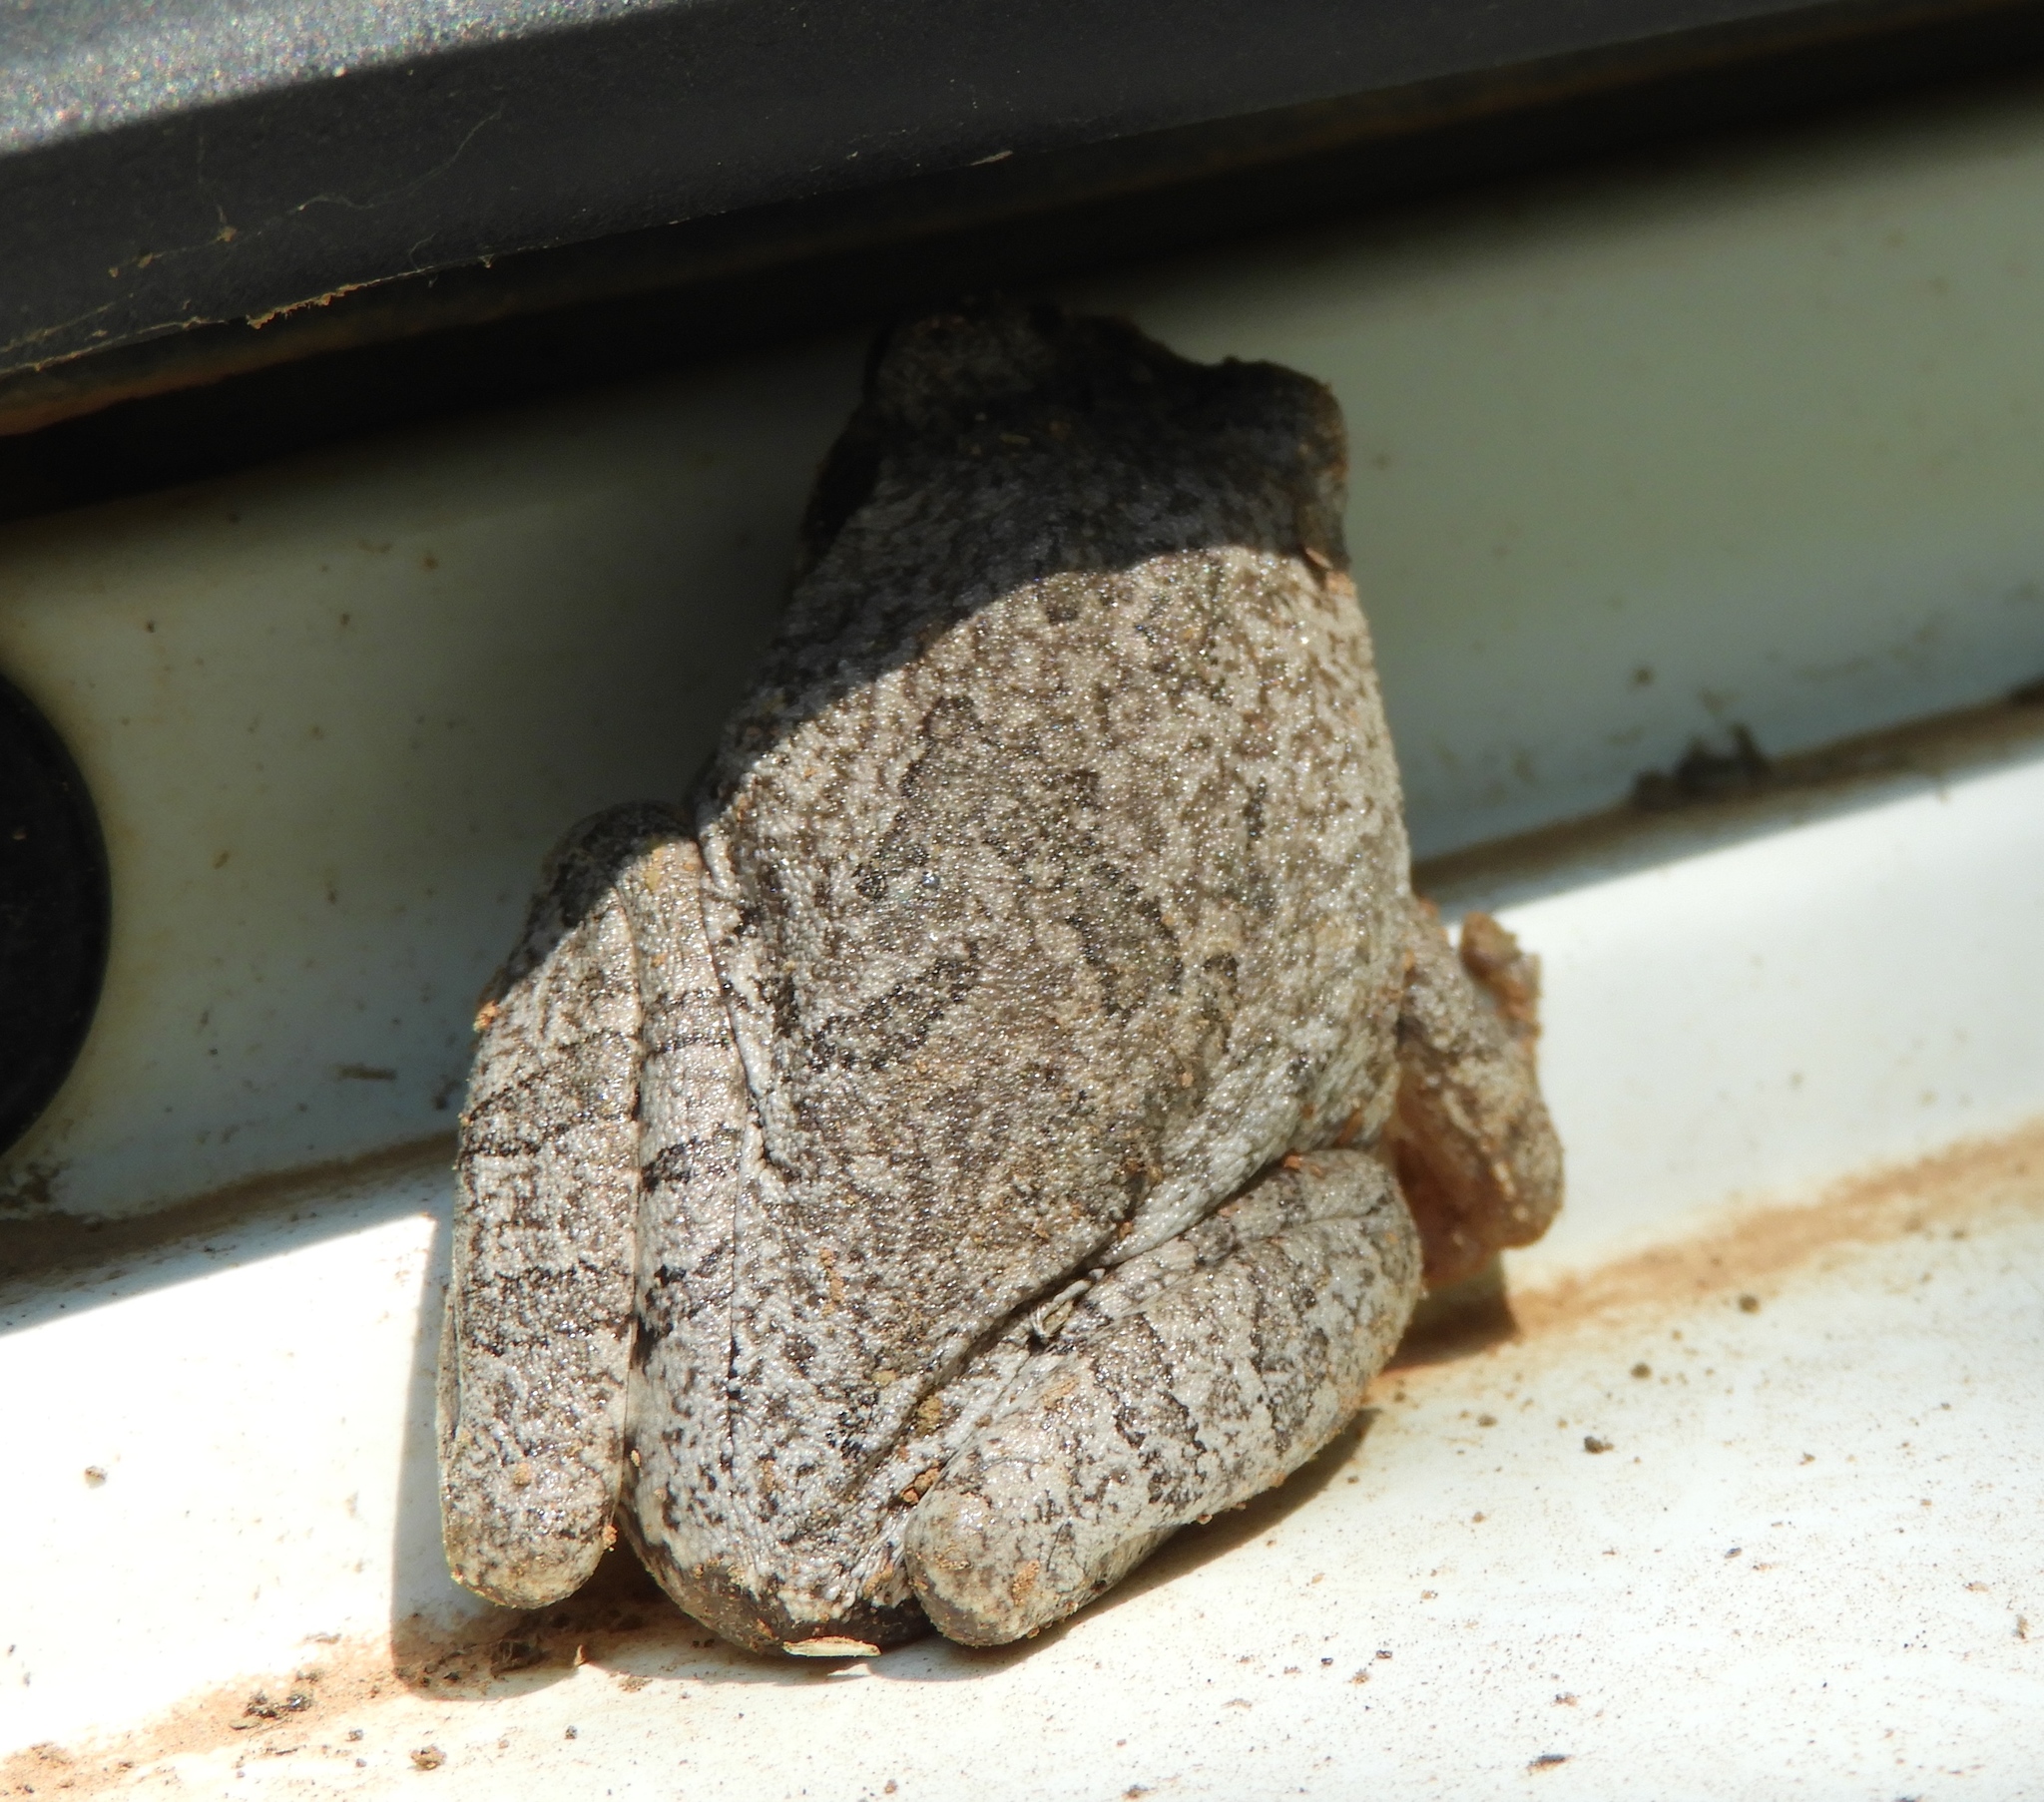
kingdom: Animalia
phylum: Chordata
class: Amphibia
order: Anura
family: Hylidae
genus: Smilisca
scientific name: Smilisca baudinii
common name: Mexican smilisca
